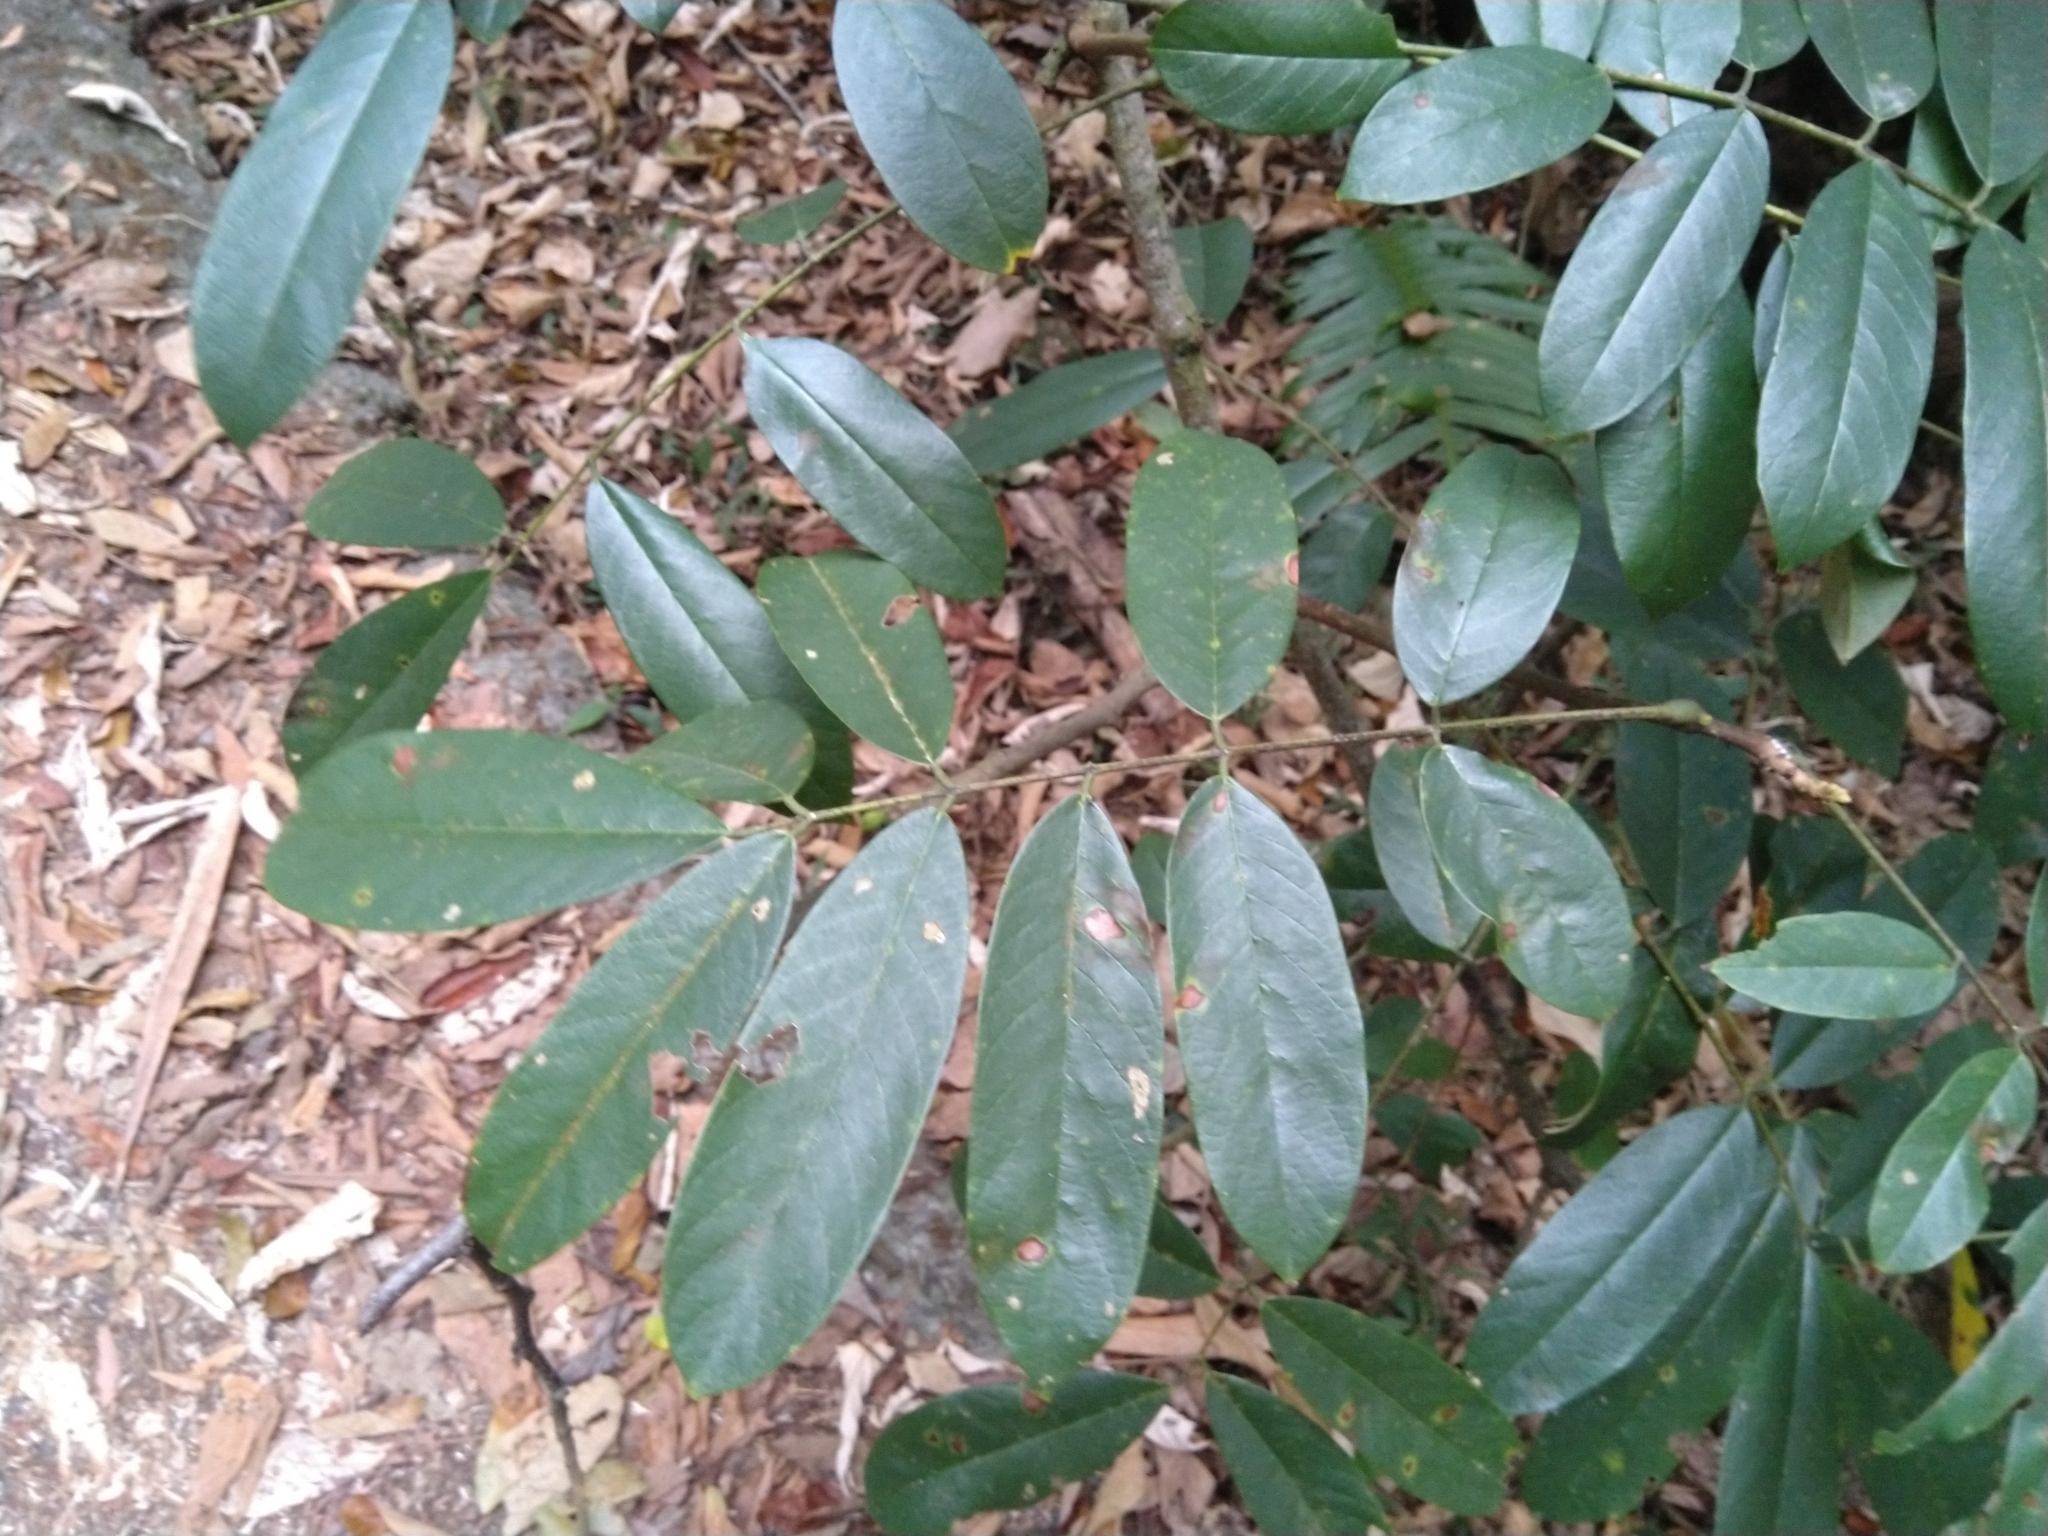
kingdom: Plantae
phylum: Tracheophyta
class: Magnoliopsida
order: Fabales
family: Fabaceae
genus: Millettia
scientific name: Millettia pachycarpa
